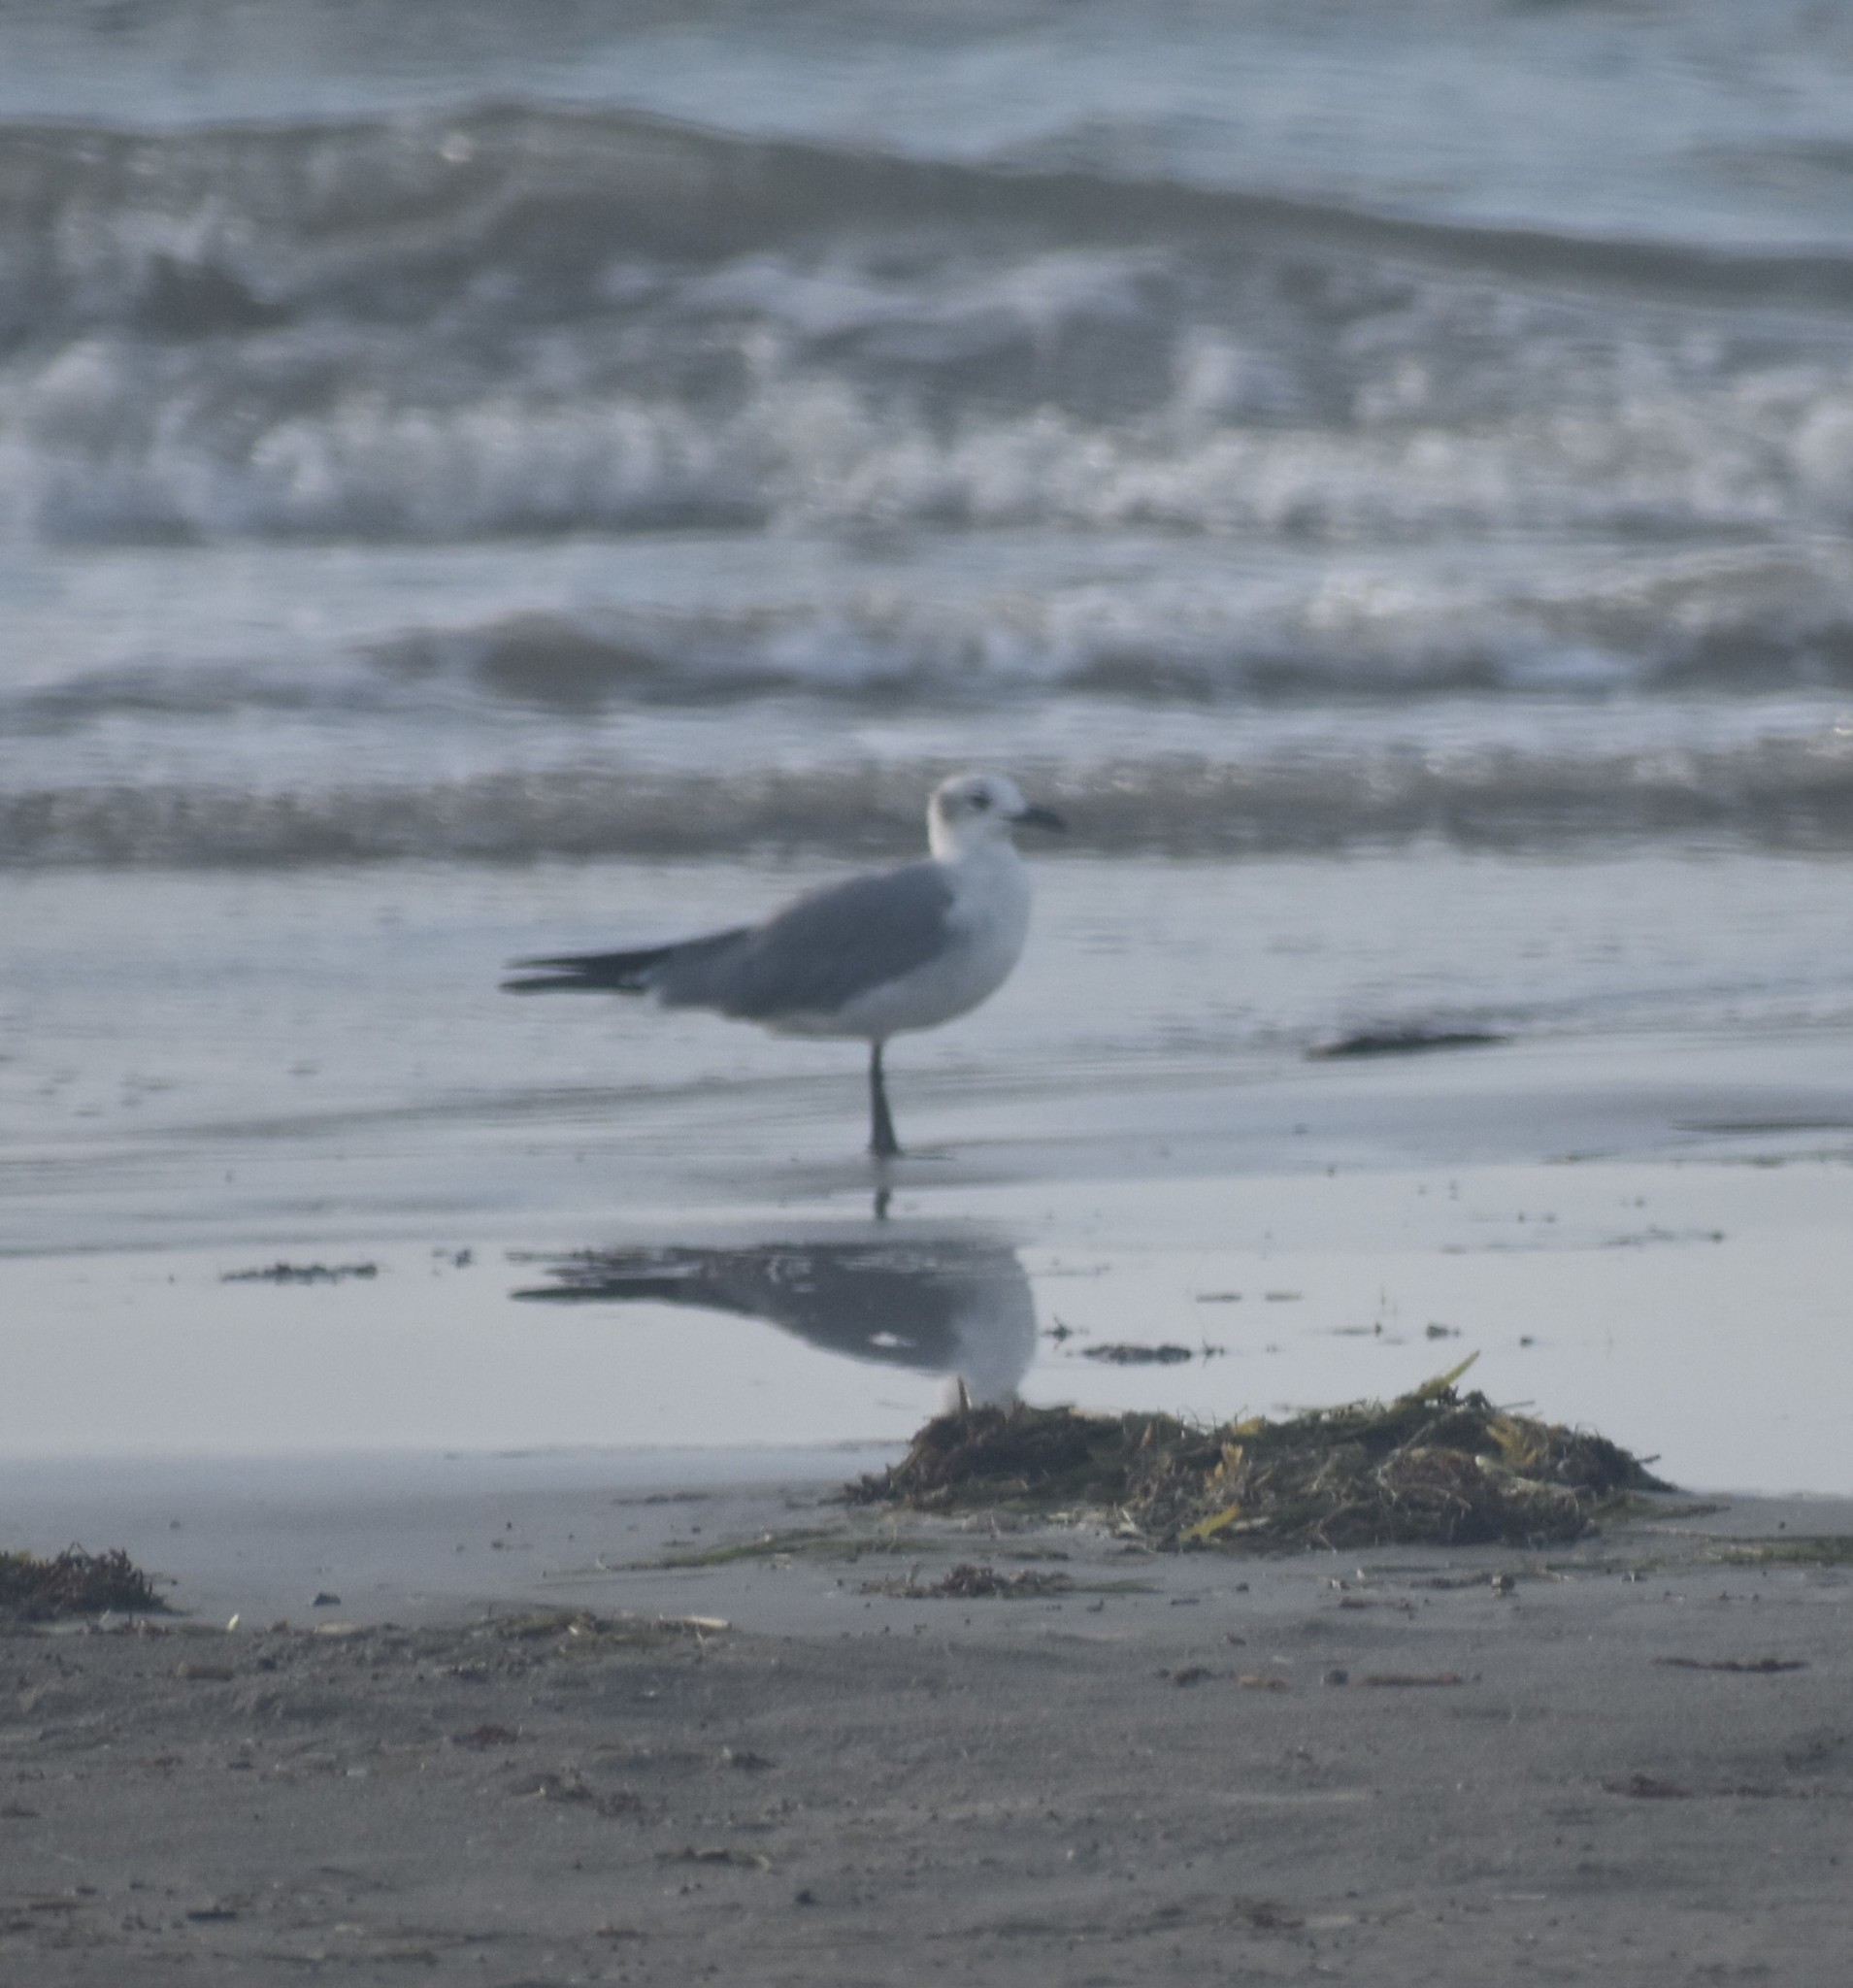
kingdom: Animalia
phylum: Chordata
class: Aves
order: Charadriiformes
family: Laridae
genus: Leucophaeus
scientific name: Leucophaeus atricilla
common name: Laughing gull
